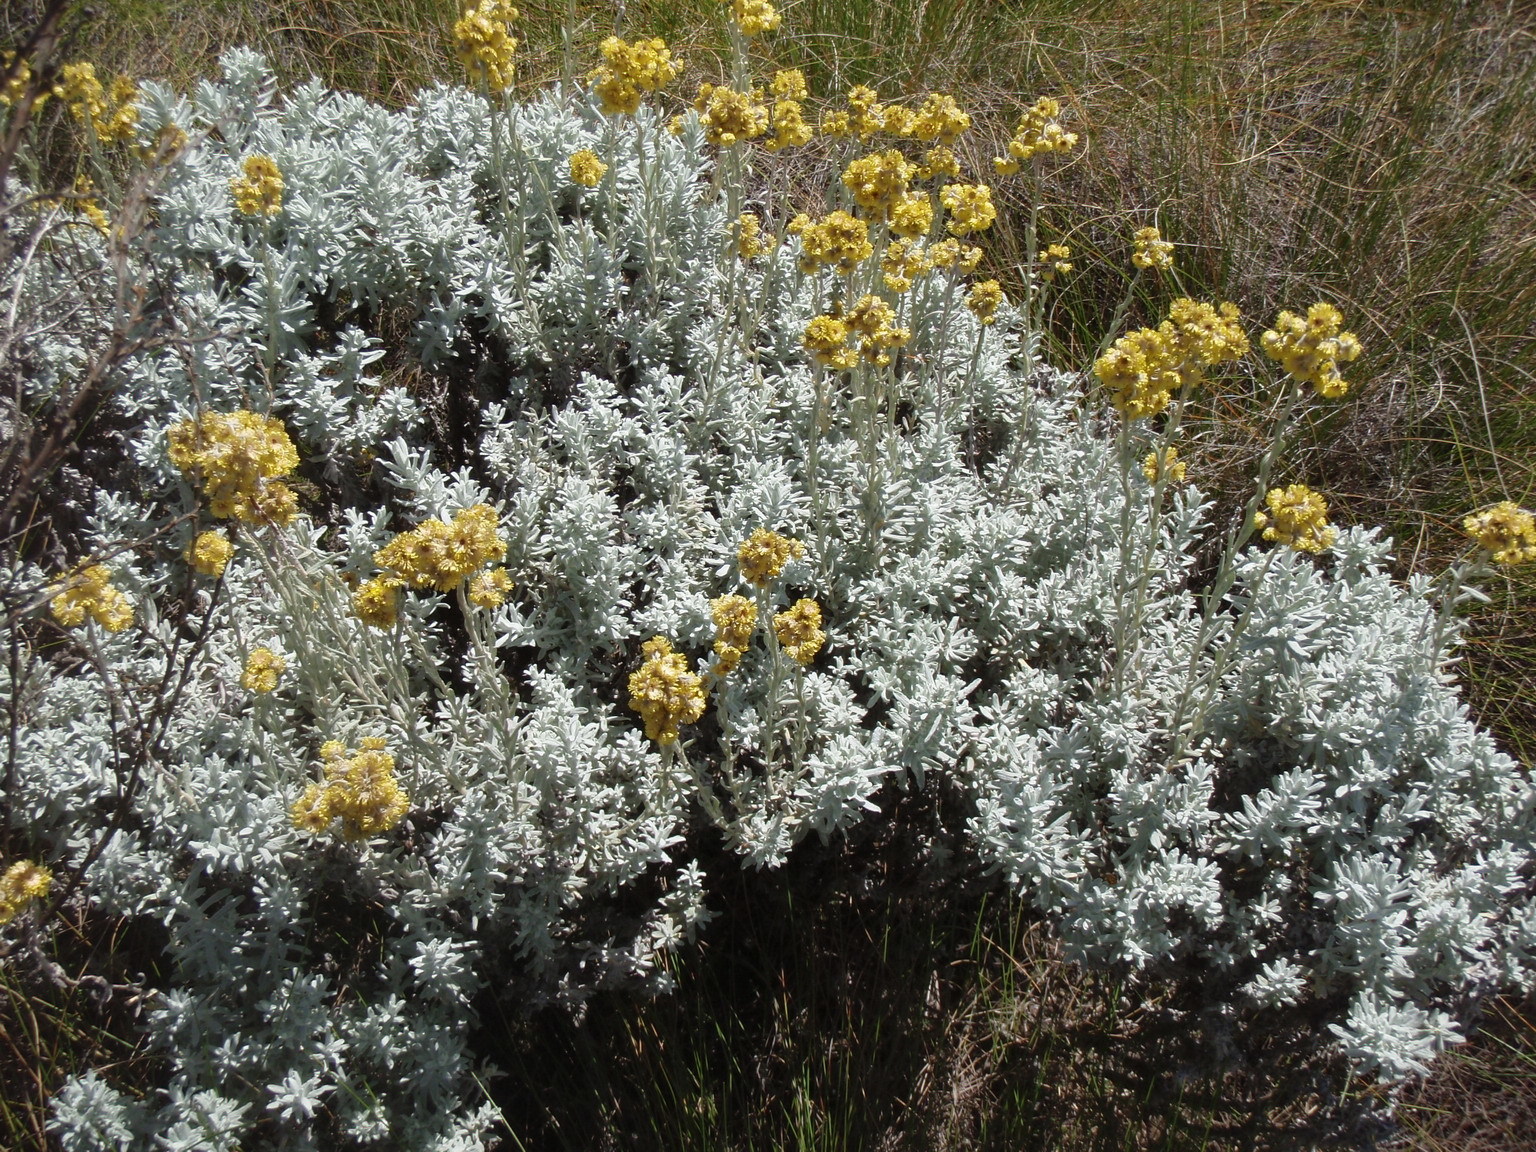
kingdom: Plantae
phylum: Tracheophyta
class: Magnoliopsida
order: Asterales
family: Asteraceae
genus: Helichrysum
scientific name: Helichrysum splendidum
